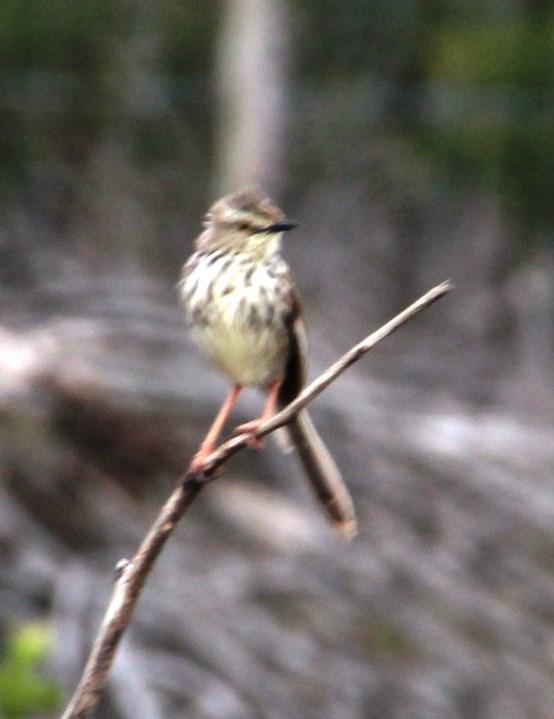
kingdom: Animalia
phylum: Chordata
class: Aves
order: Passeriformes
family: Cisticolidae
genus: Prinia
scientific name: Prinia maculosa
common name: Karoo prinia
